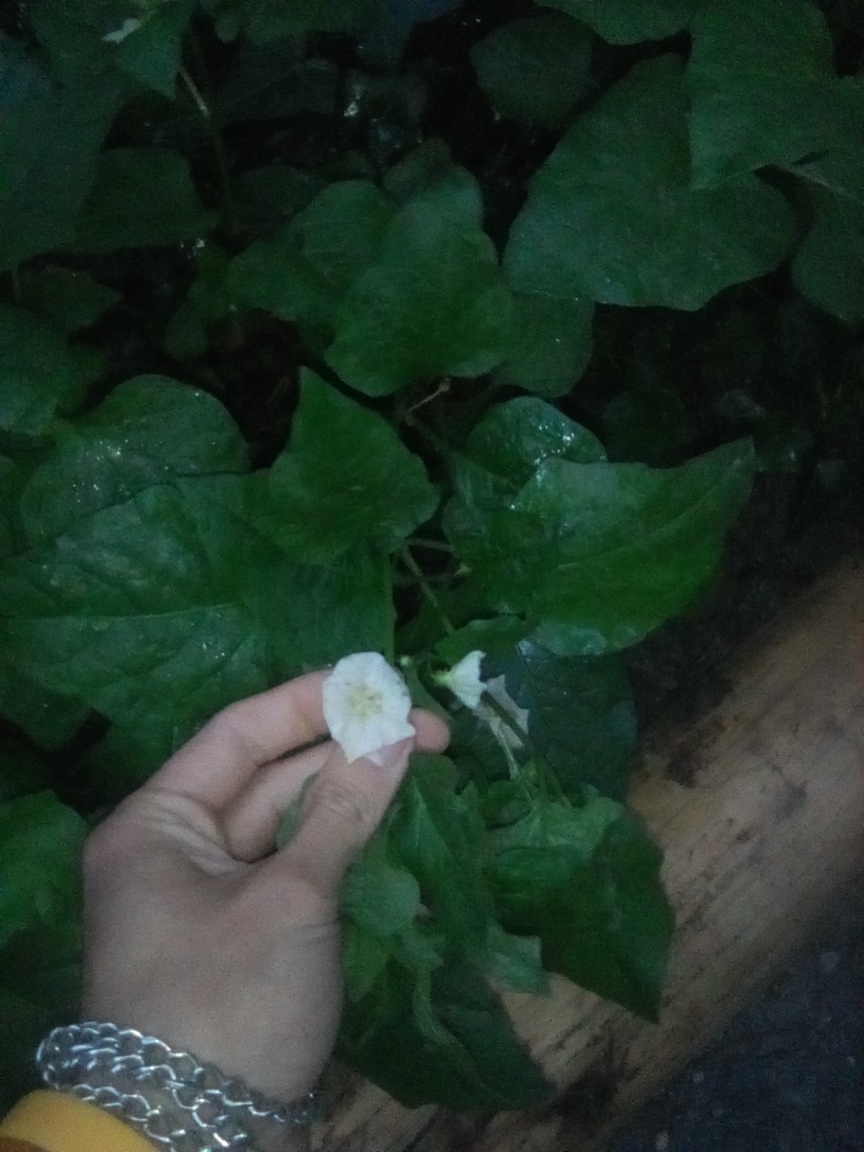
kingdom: Plantae
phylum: Tracheophyta
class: Magnoliopsida
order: Solanales
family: Solanaceae
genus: Alkekengi
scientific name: Alkekengi officinarum
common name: Japanese-lantern
